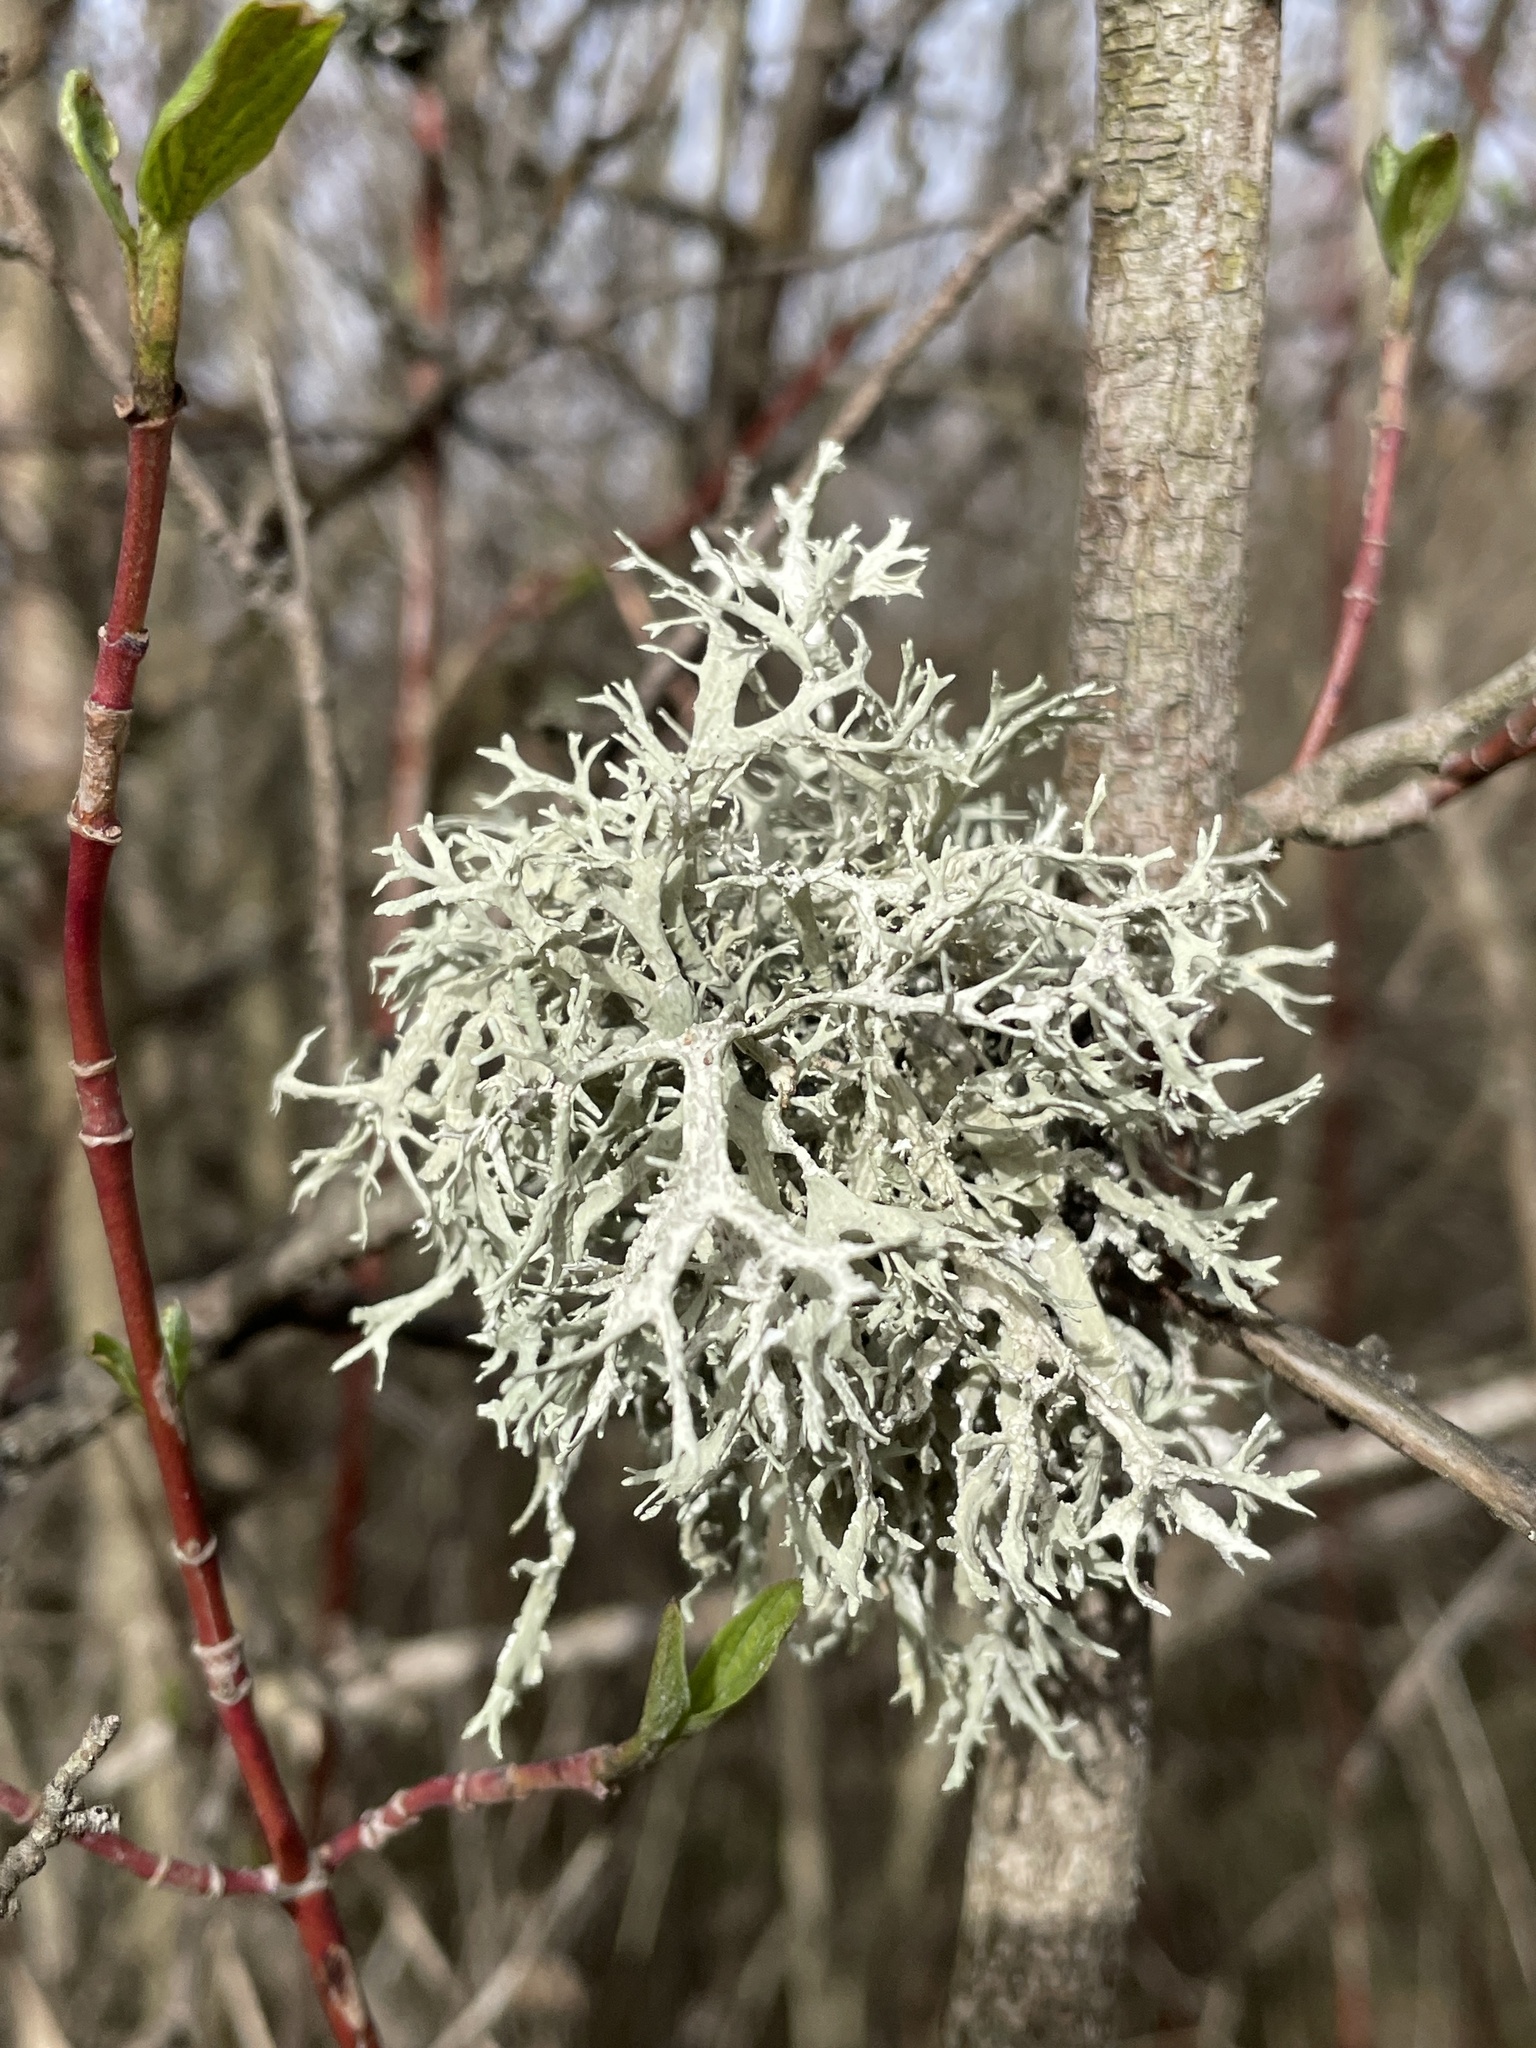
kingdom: Fungi
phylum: Ascomycota
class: Lecanoromycetes
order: Lecanorales
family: Parmeliaceae
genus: Evernia
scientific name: Evernia prunastri
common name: Oak moss
